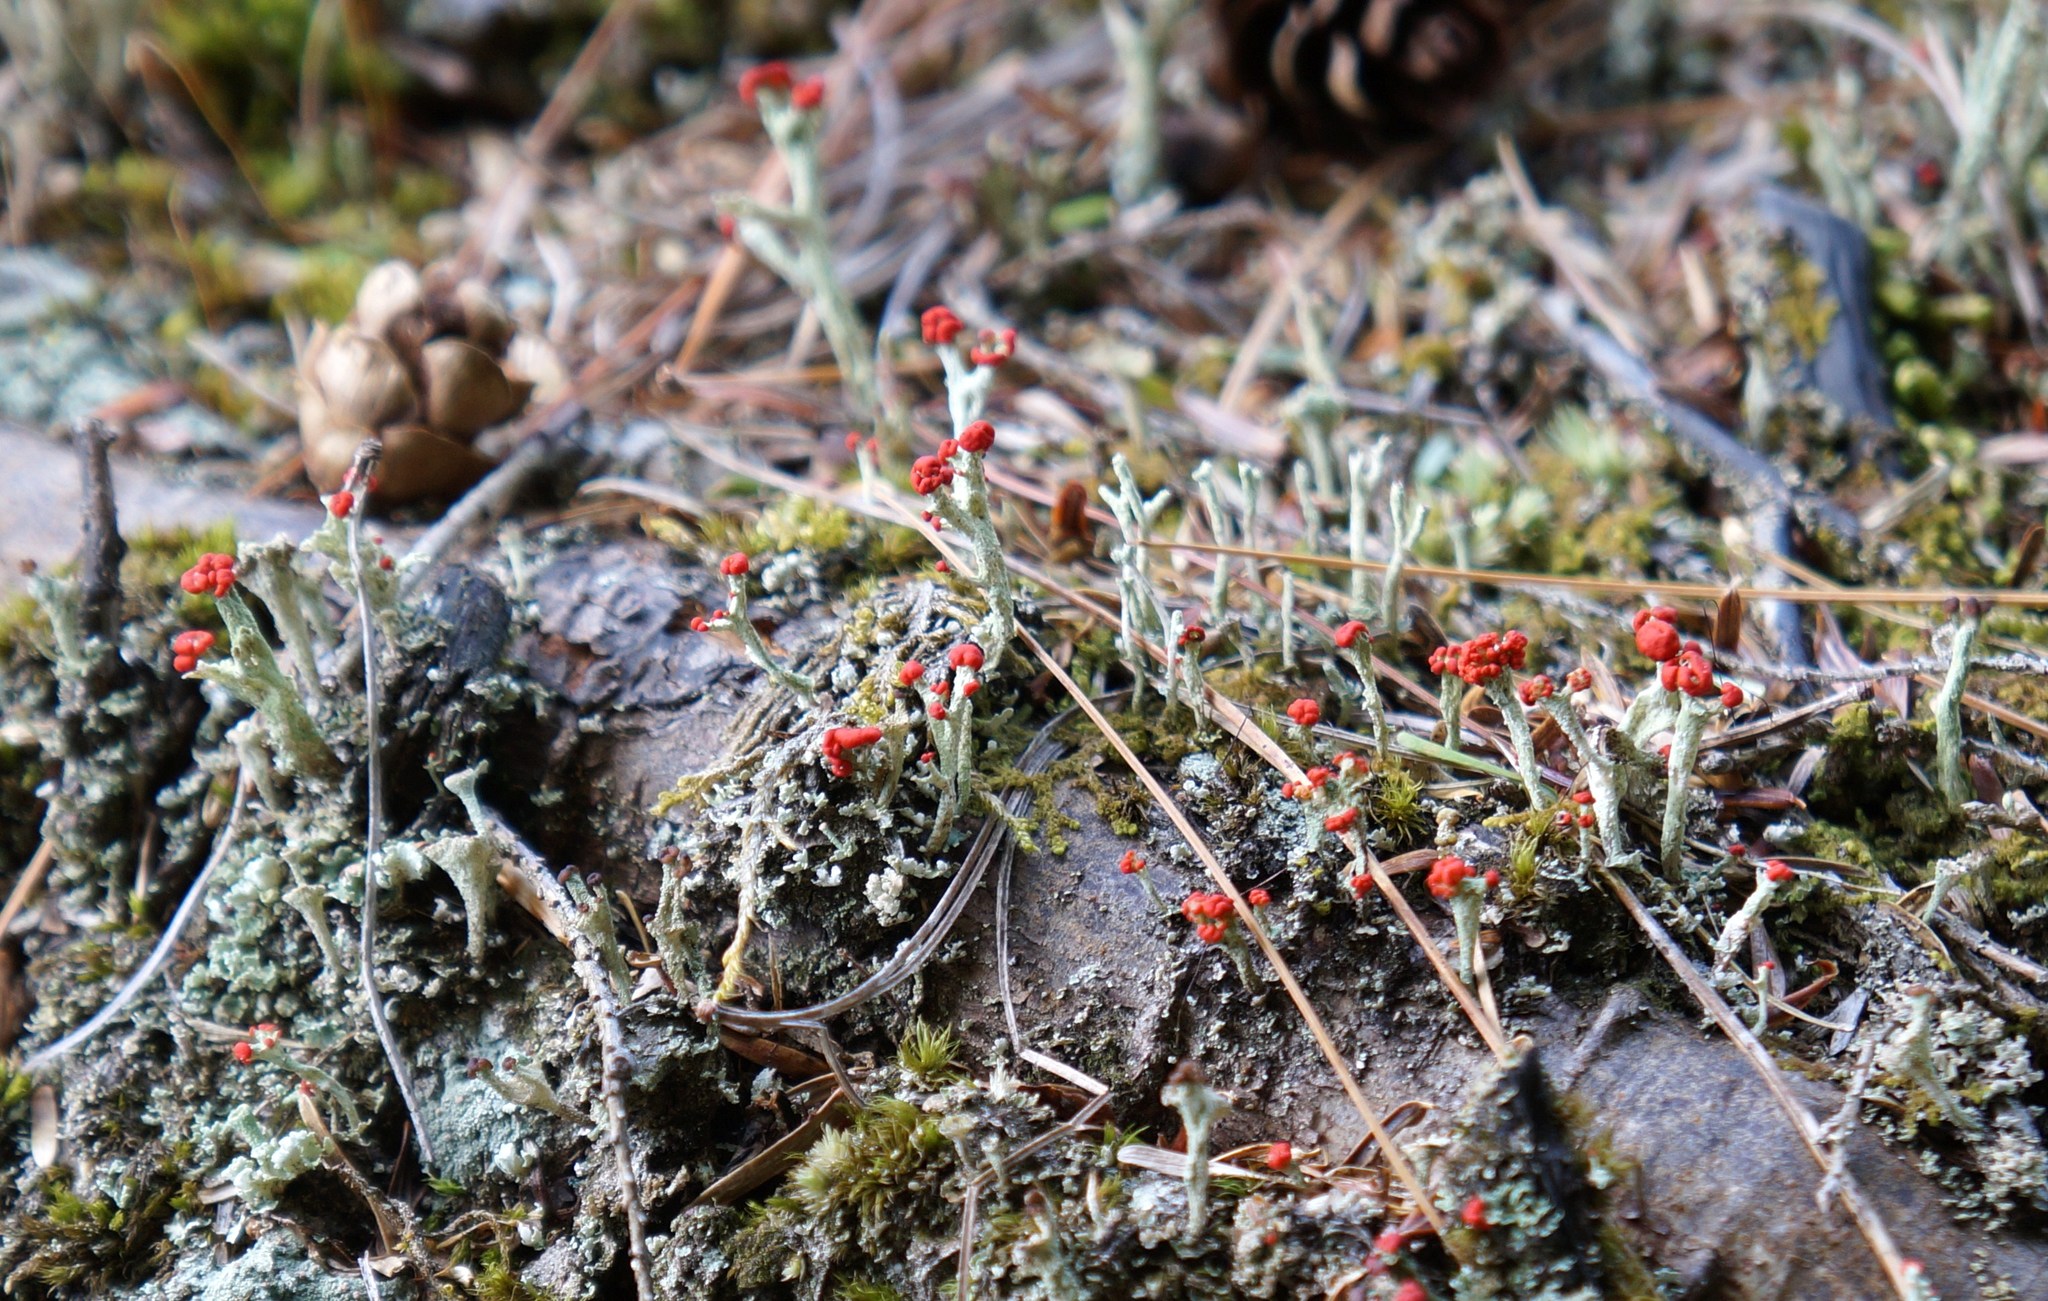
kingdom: Fungi
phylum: Ascomycota
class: Lecanoromycetes
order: Lecanorales
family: Cladoniaceae
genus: Cladonia
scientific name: Cladonia cristatella
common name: British soldier lichen
